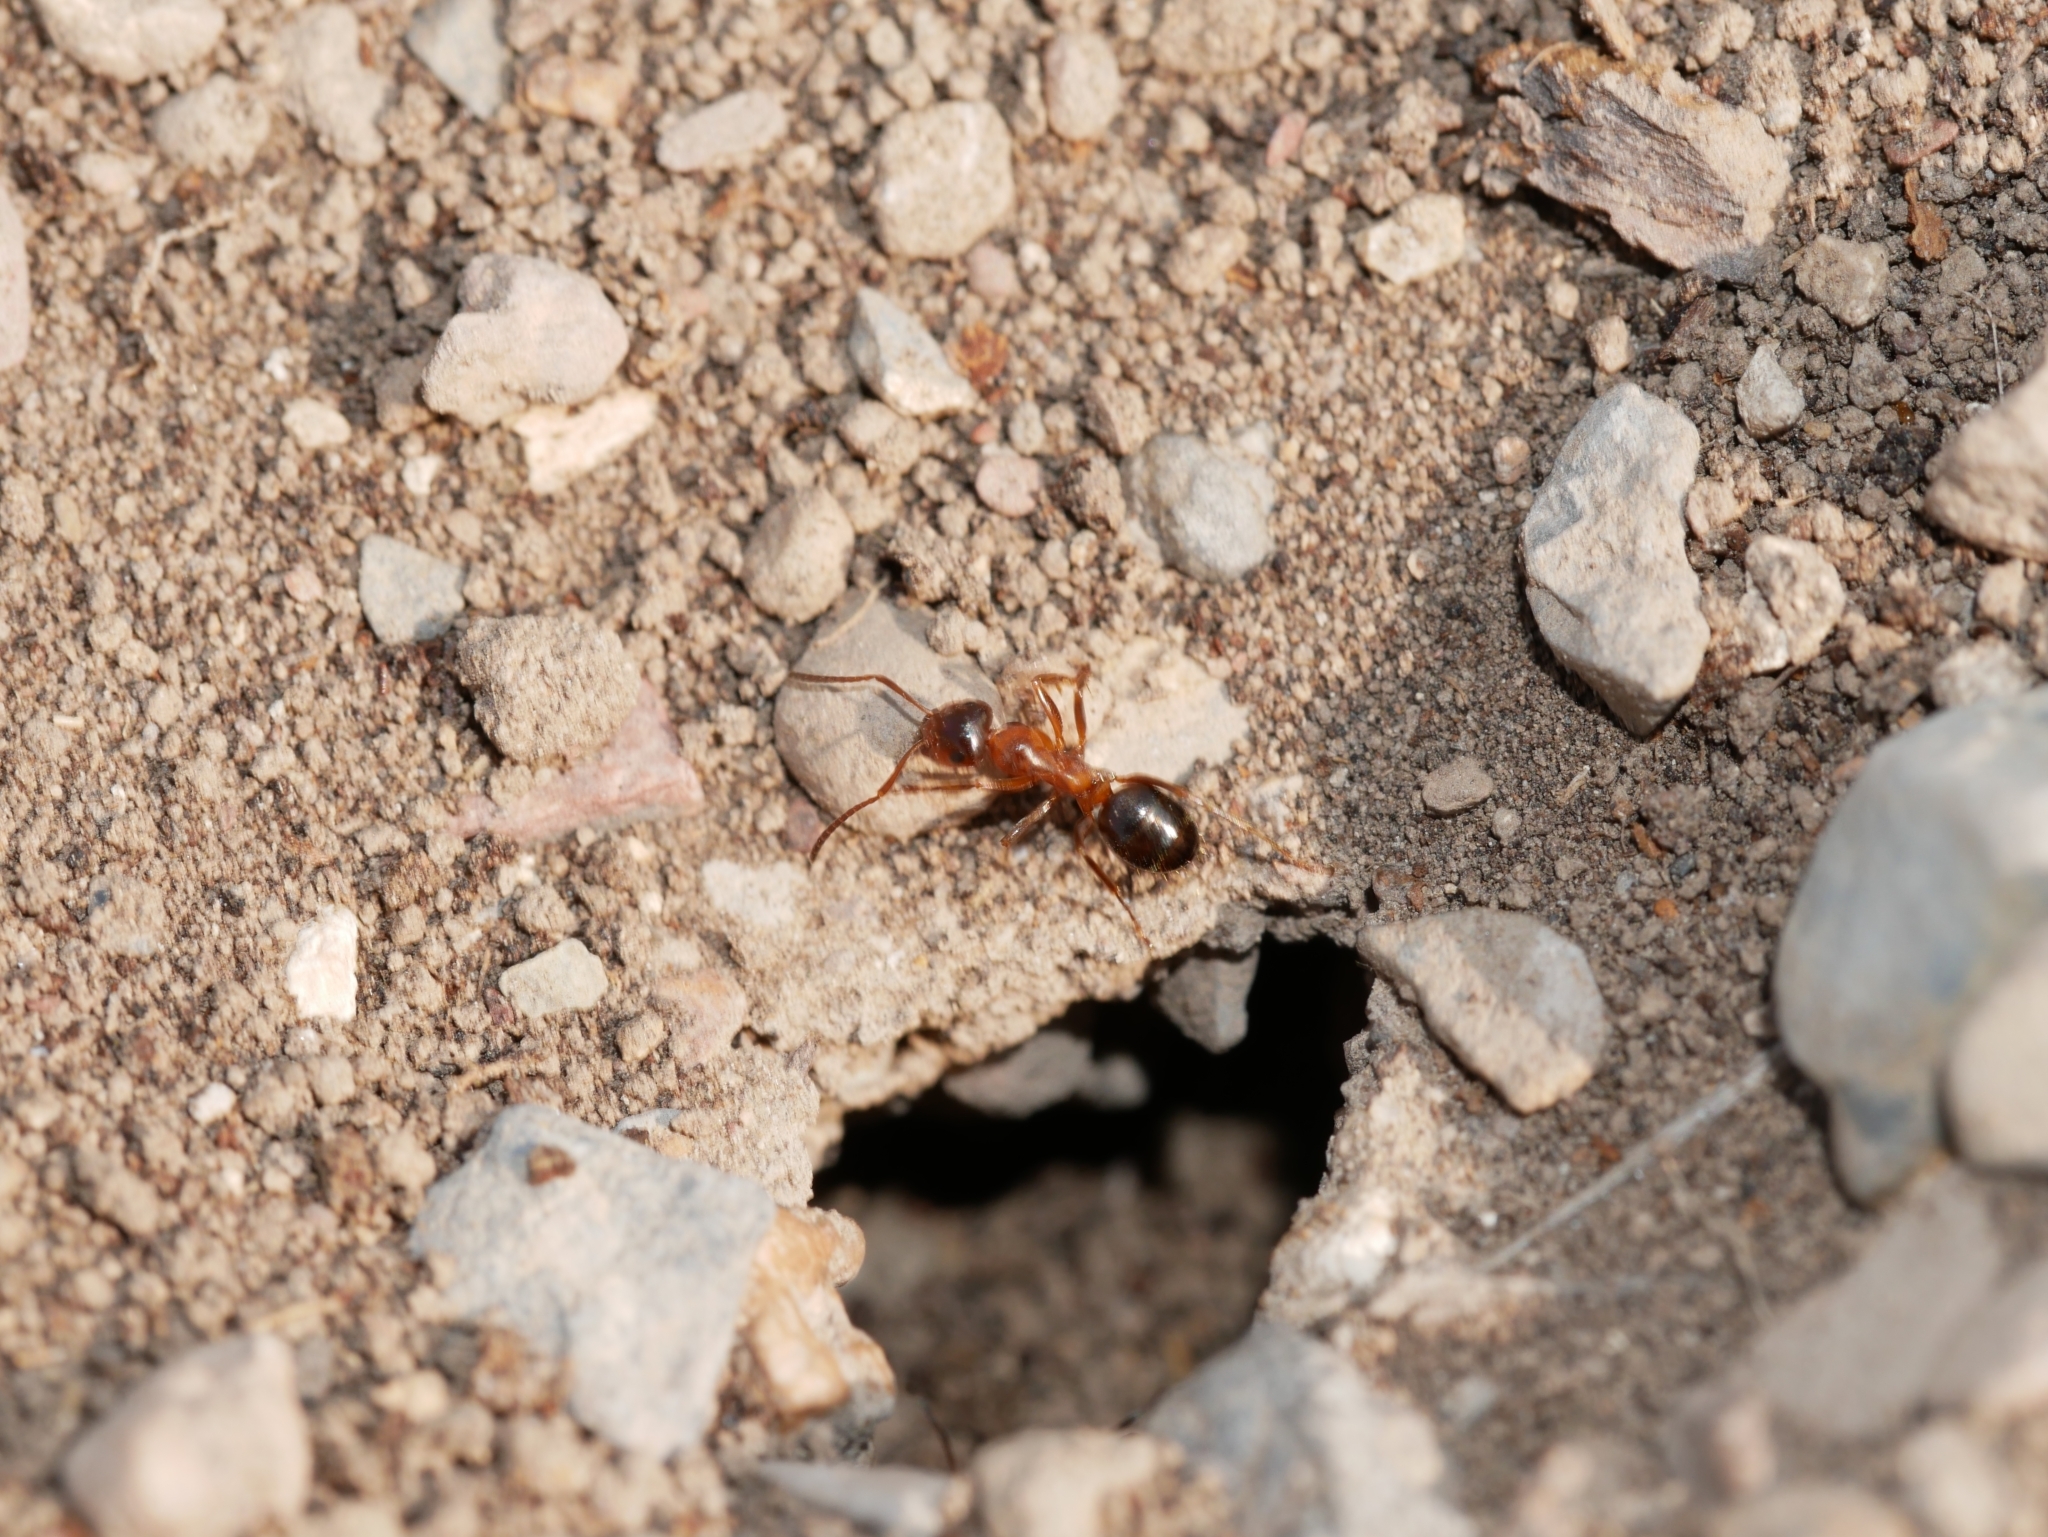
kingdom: Animalia
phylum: Arthropoda
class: Insecta
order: Hymenoptera
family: Formicidae
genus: Formica
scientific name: Formica subpolita
